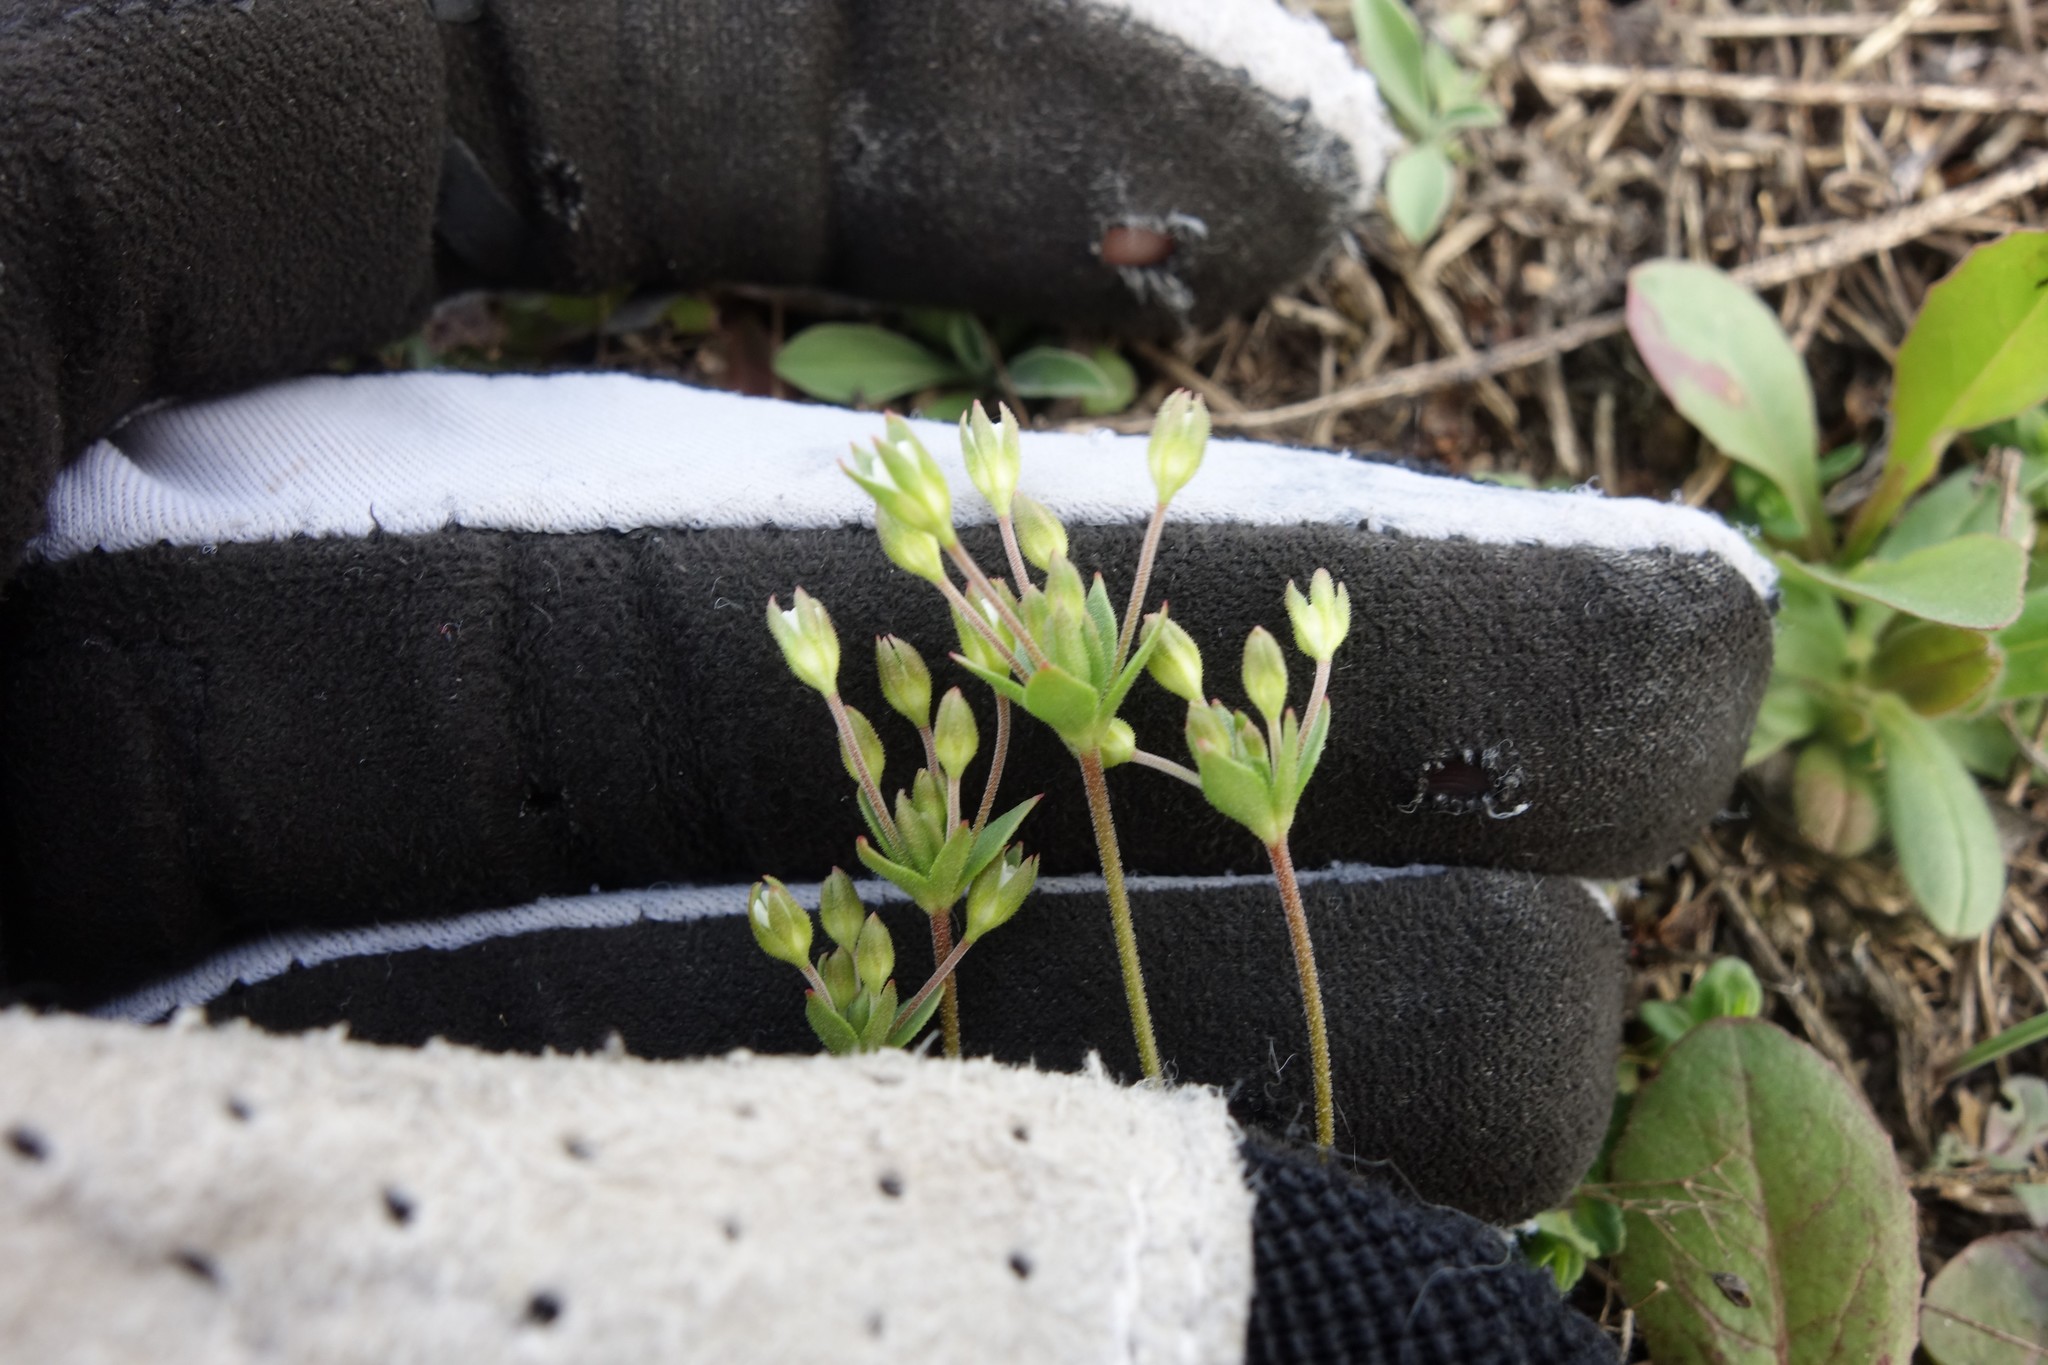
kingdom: Plantae
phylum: Tracheophyta
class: Magnoliopsida
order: Ericales
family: Primulaceae
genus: Androsace
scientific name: Androsace elongata
